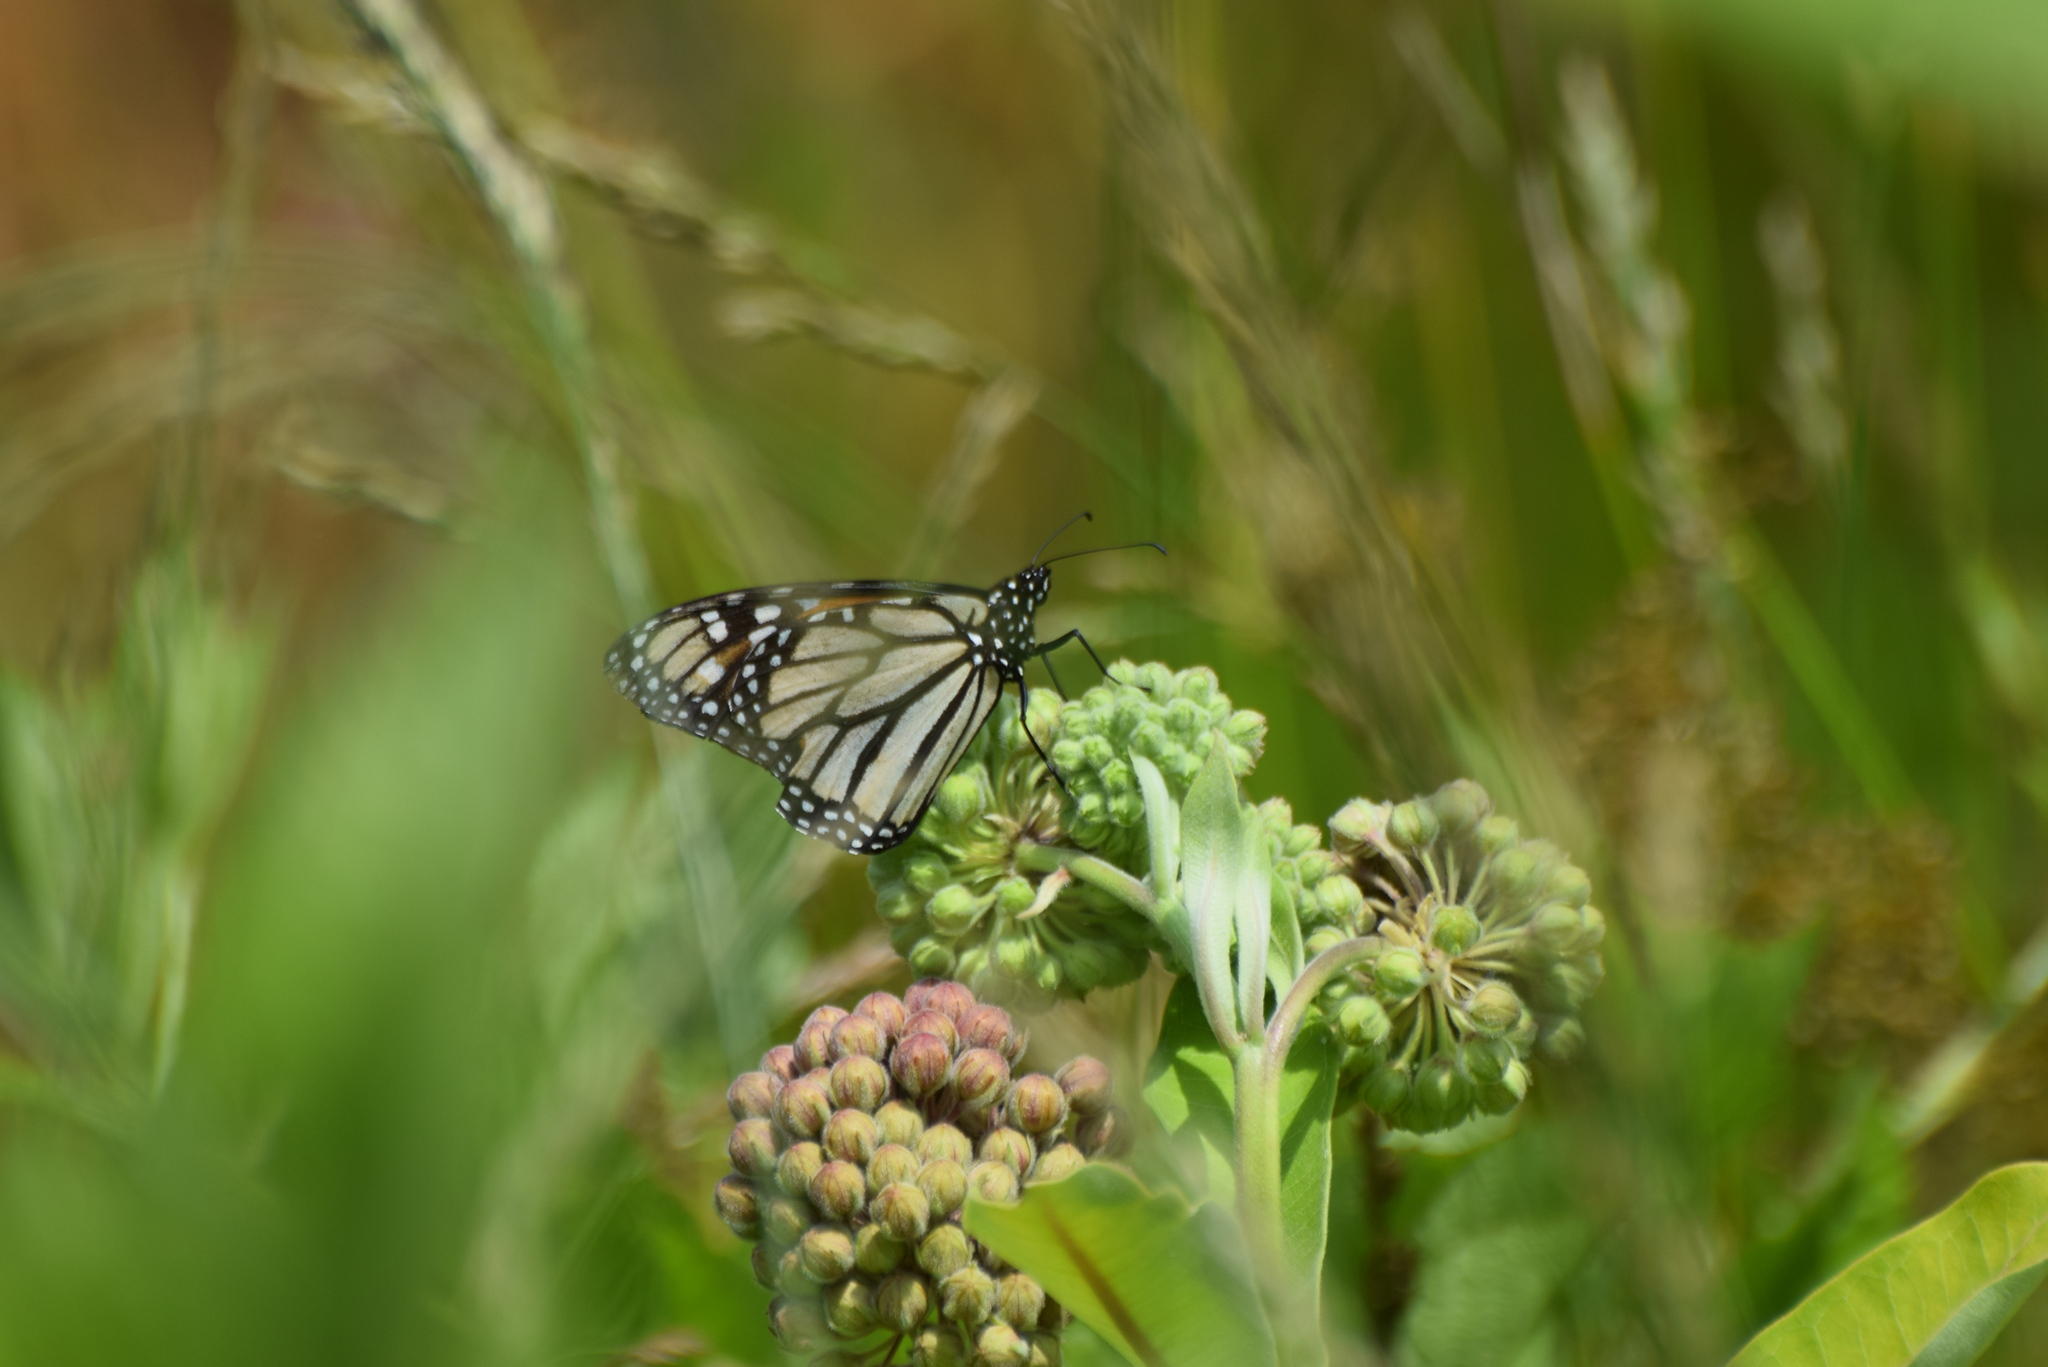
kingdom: Animalia
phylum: Arthropoda
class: Insecta
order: Lepidoptera
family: Nymphalidae
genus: Danaus
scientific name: Danaus plexippus
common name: Monarch
